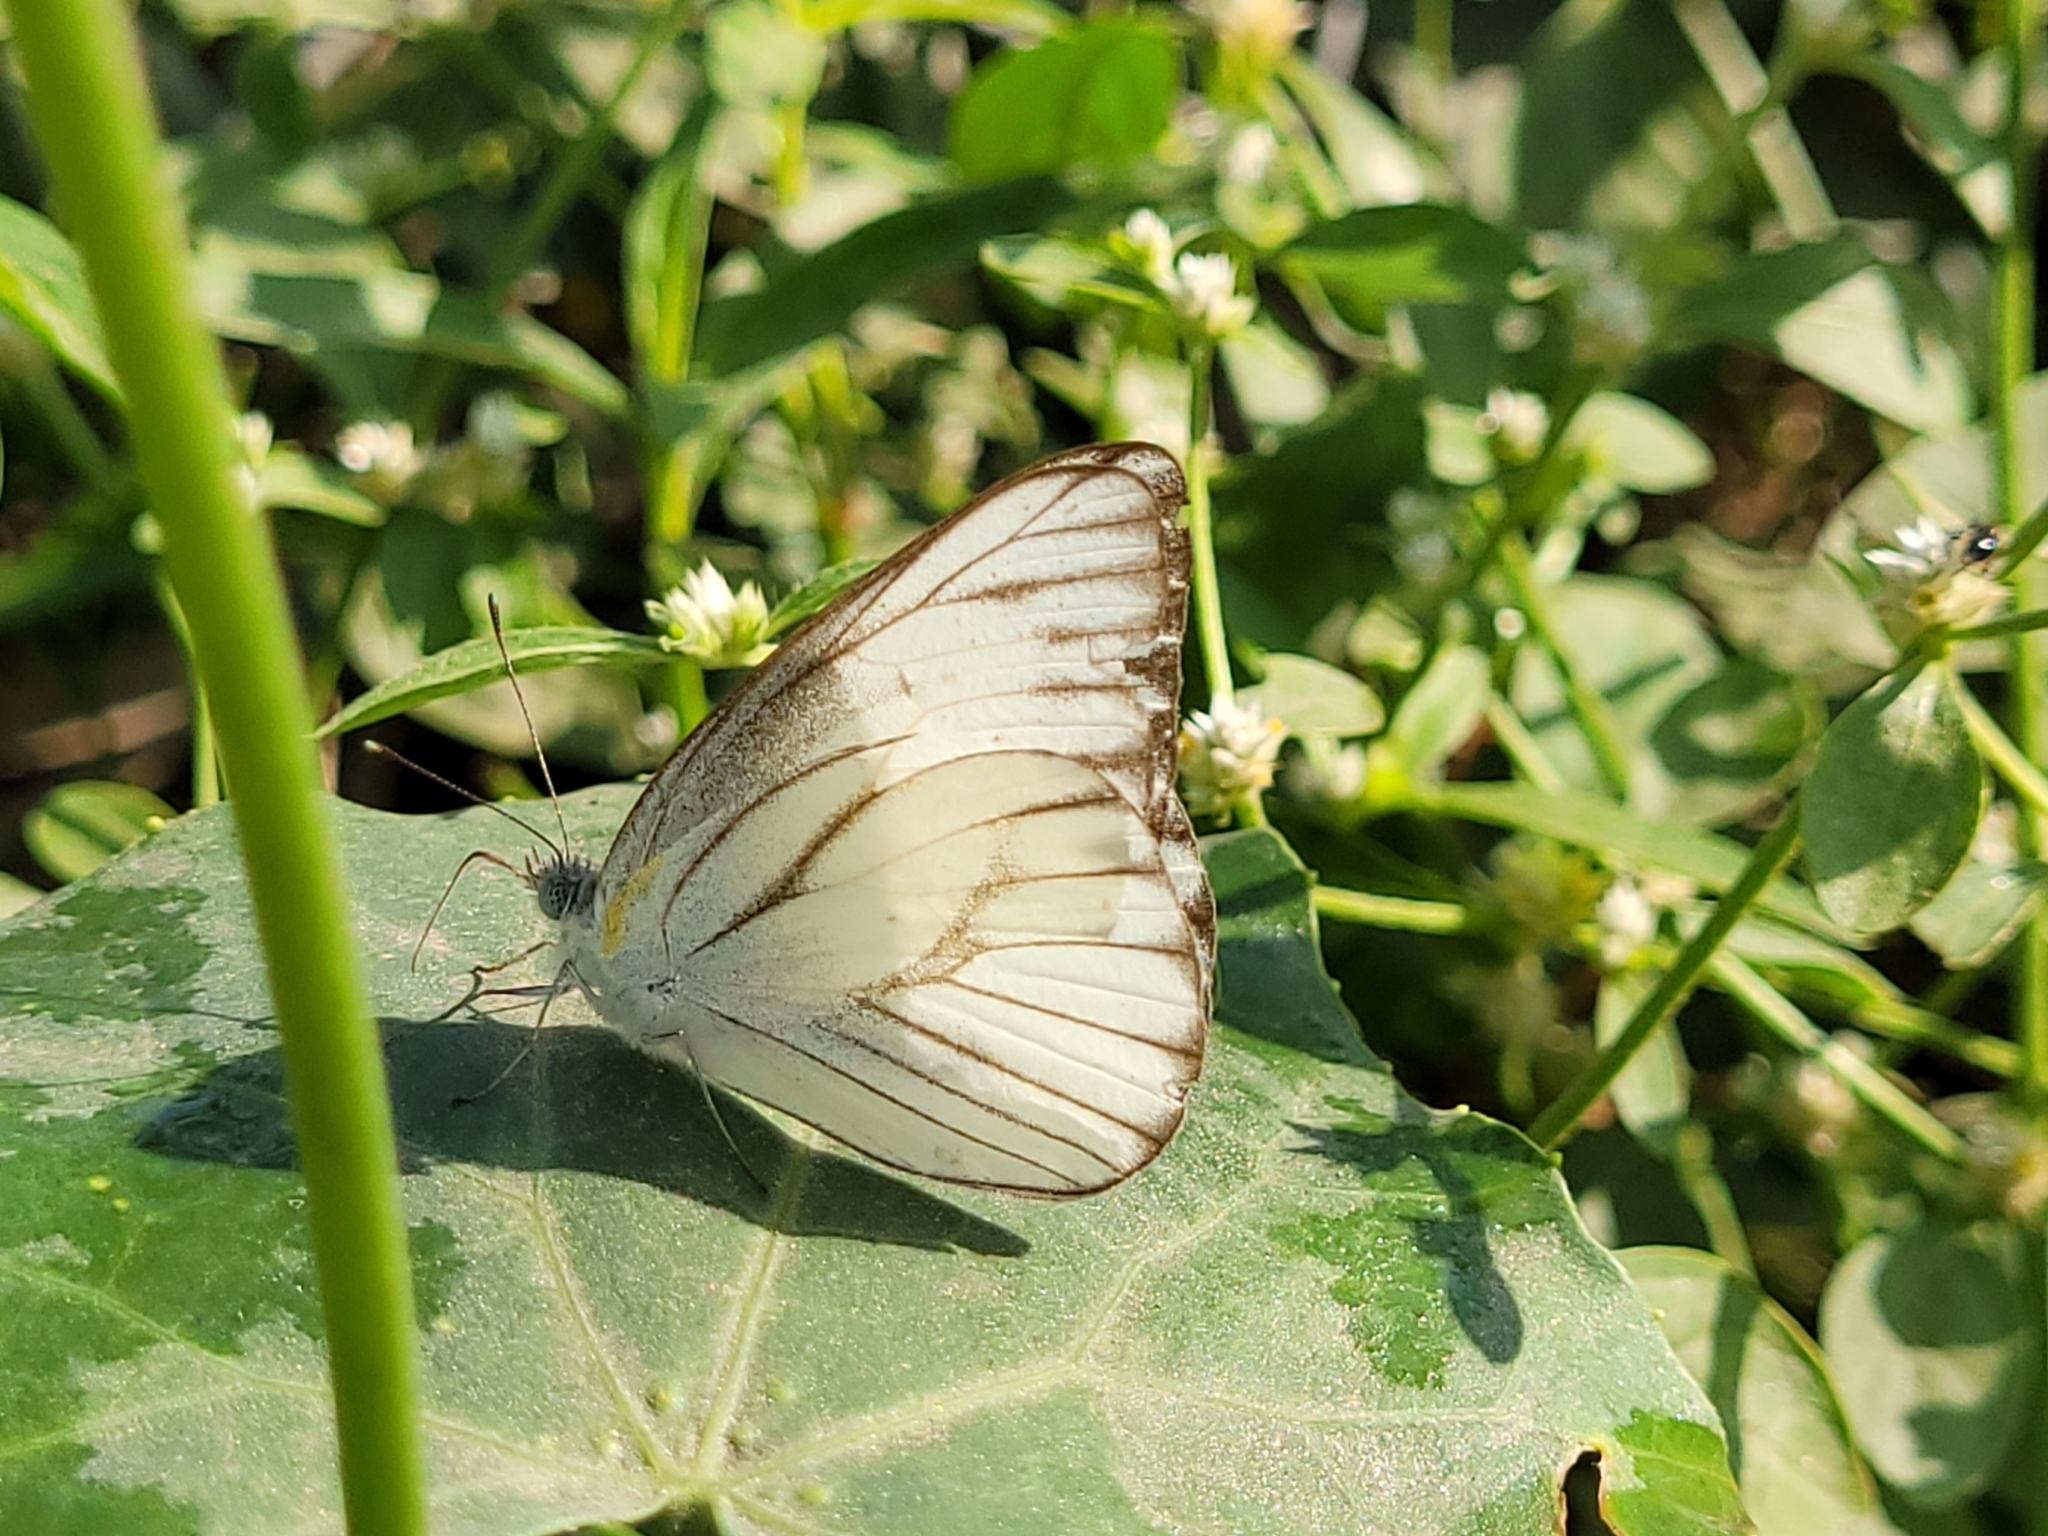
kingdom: Animalia
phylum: Arthropoda
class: Insecta
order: Lepidoptera
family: Pieridae
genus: Appias
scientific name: Appias libythea
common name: Striped albatross
